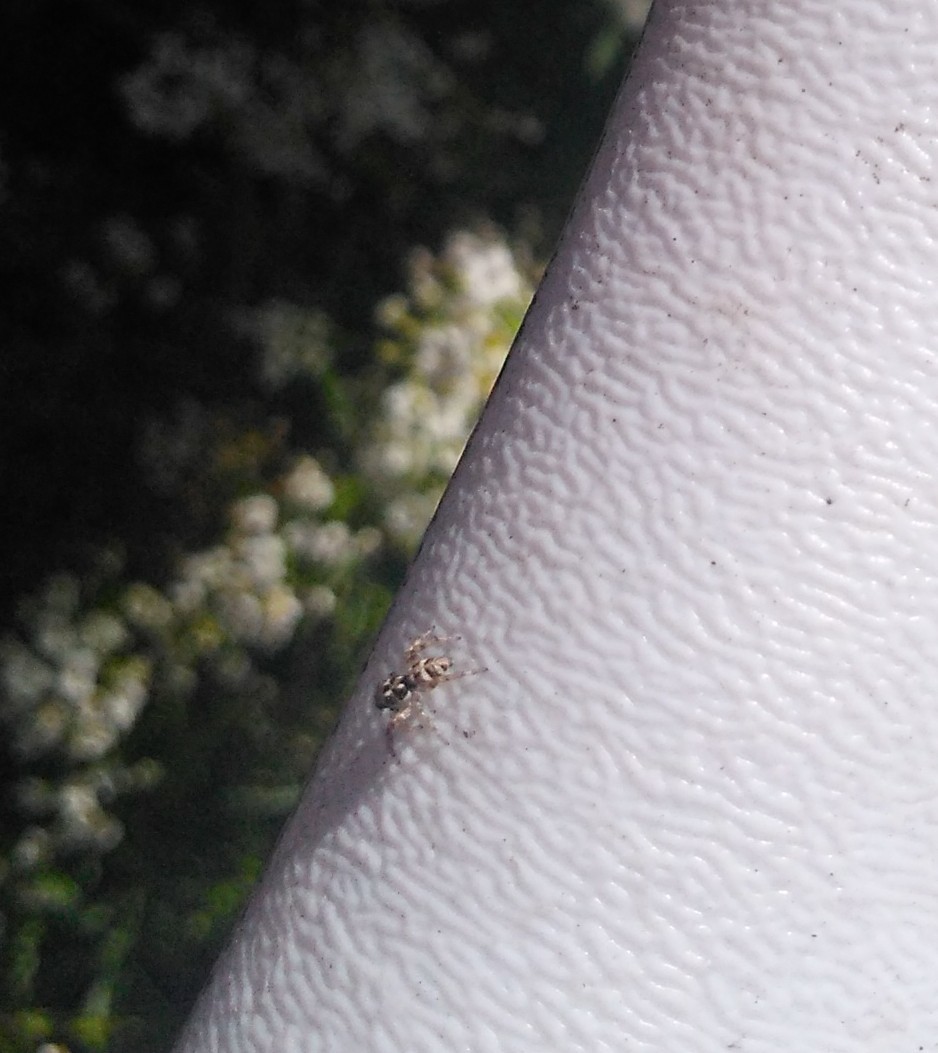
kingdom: Animalia
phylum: Arthropoda
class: Arachnida
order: Araneae
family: Salticidae
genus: Salticus
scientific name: Salticus scenicus
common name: Zebra jumper
